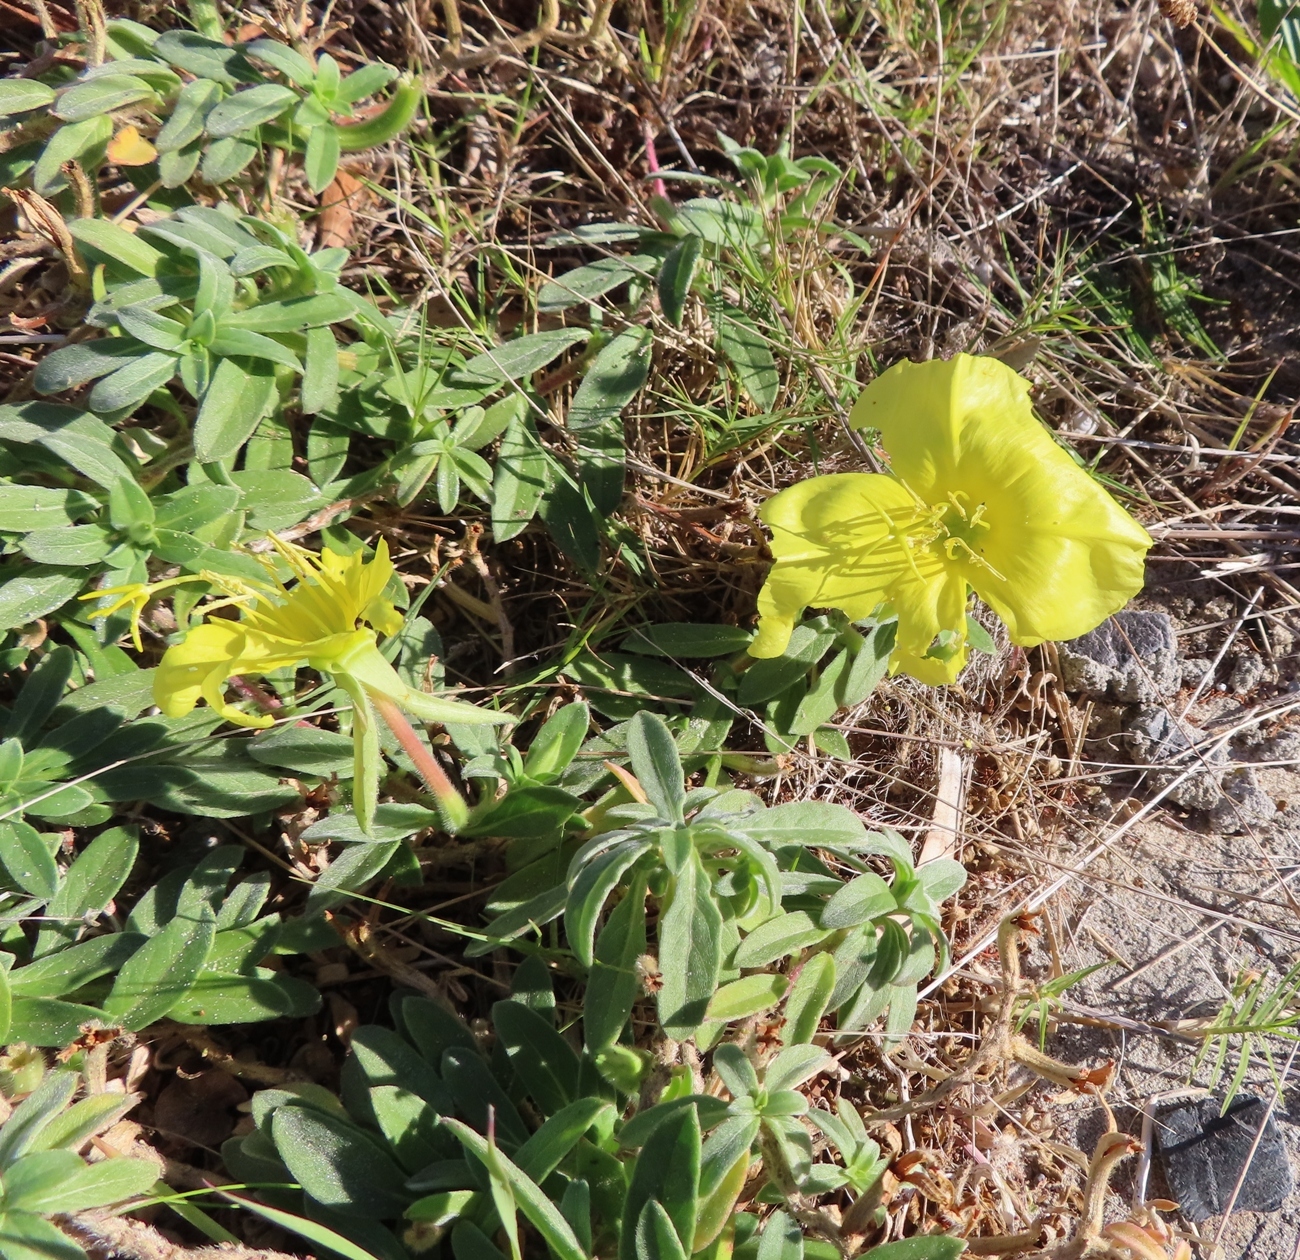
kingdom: Plantae
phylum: Tracheophyta
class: Magnoliopsida
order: Myrtales
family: Onagraceae
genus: Oenothera
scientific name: Oenothera drummondii
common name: Beach evening-primrose
